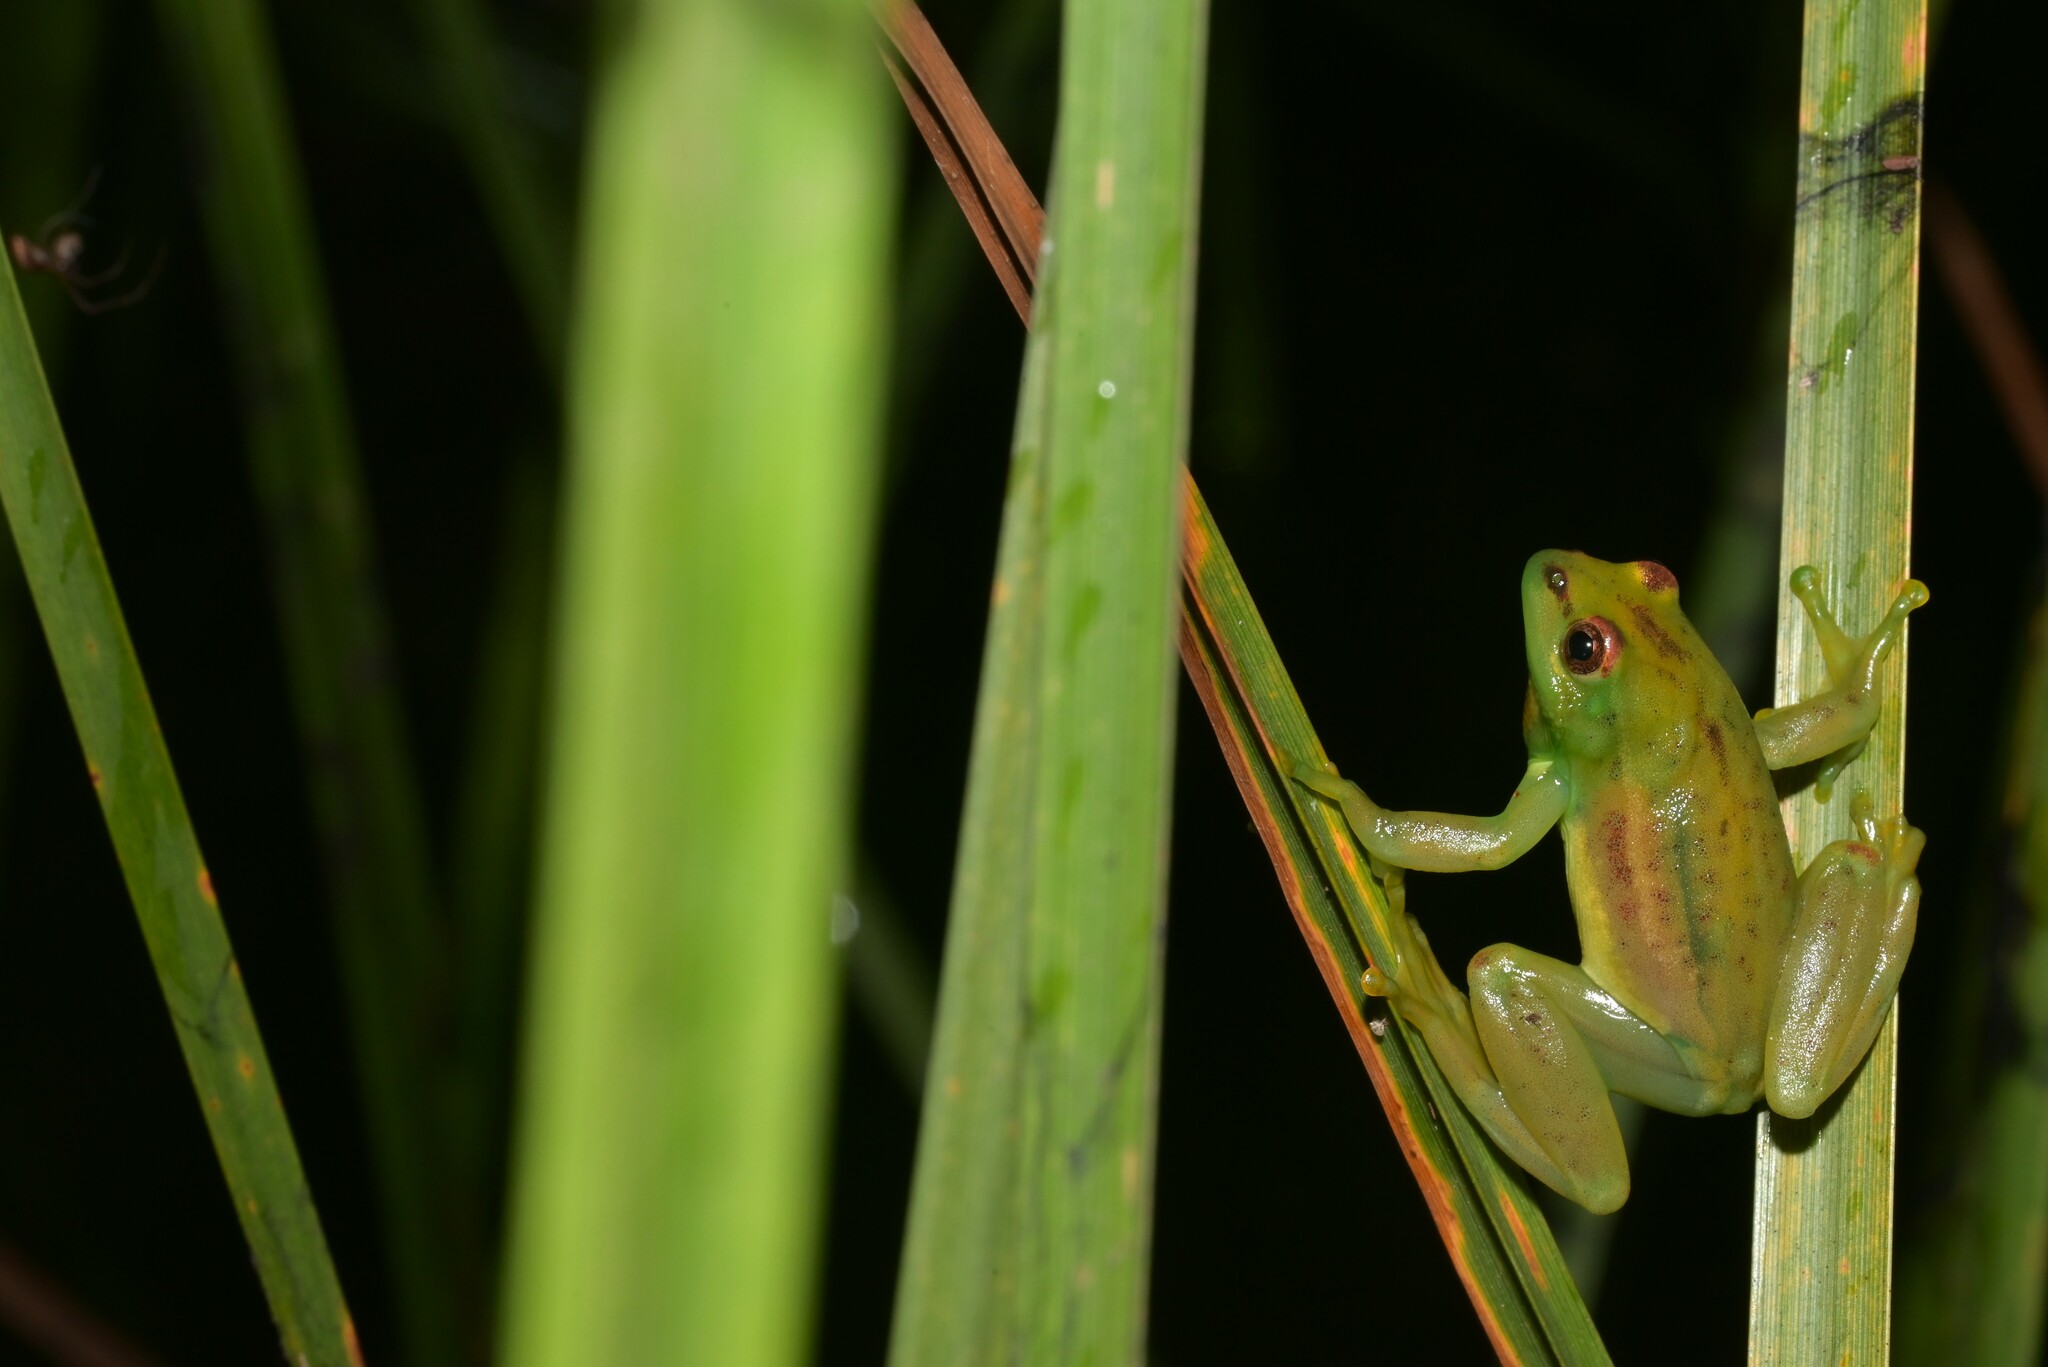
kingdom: Animalia
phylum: Chordata
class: Amphibia
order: Anura
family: Hyperoliidae
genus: Hyperolius
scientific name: Hyperolius pseudargus
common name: Mette's reed frog
